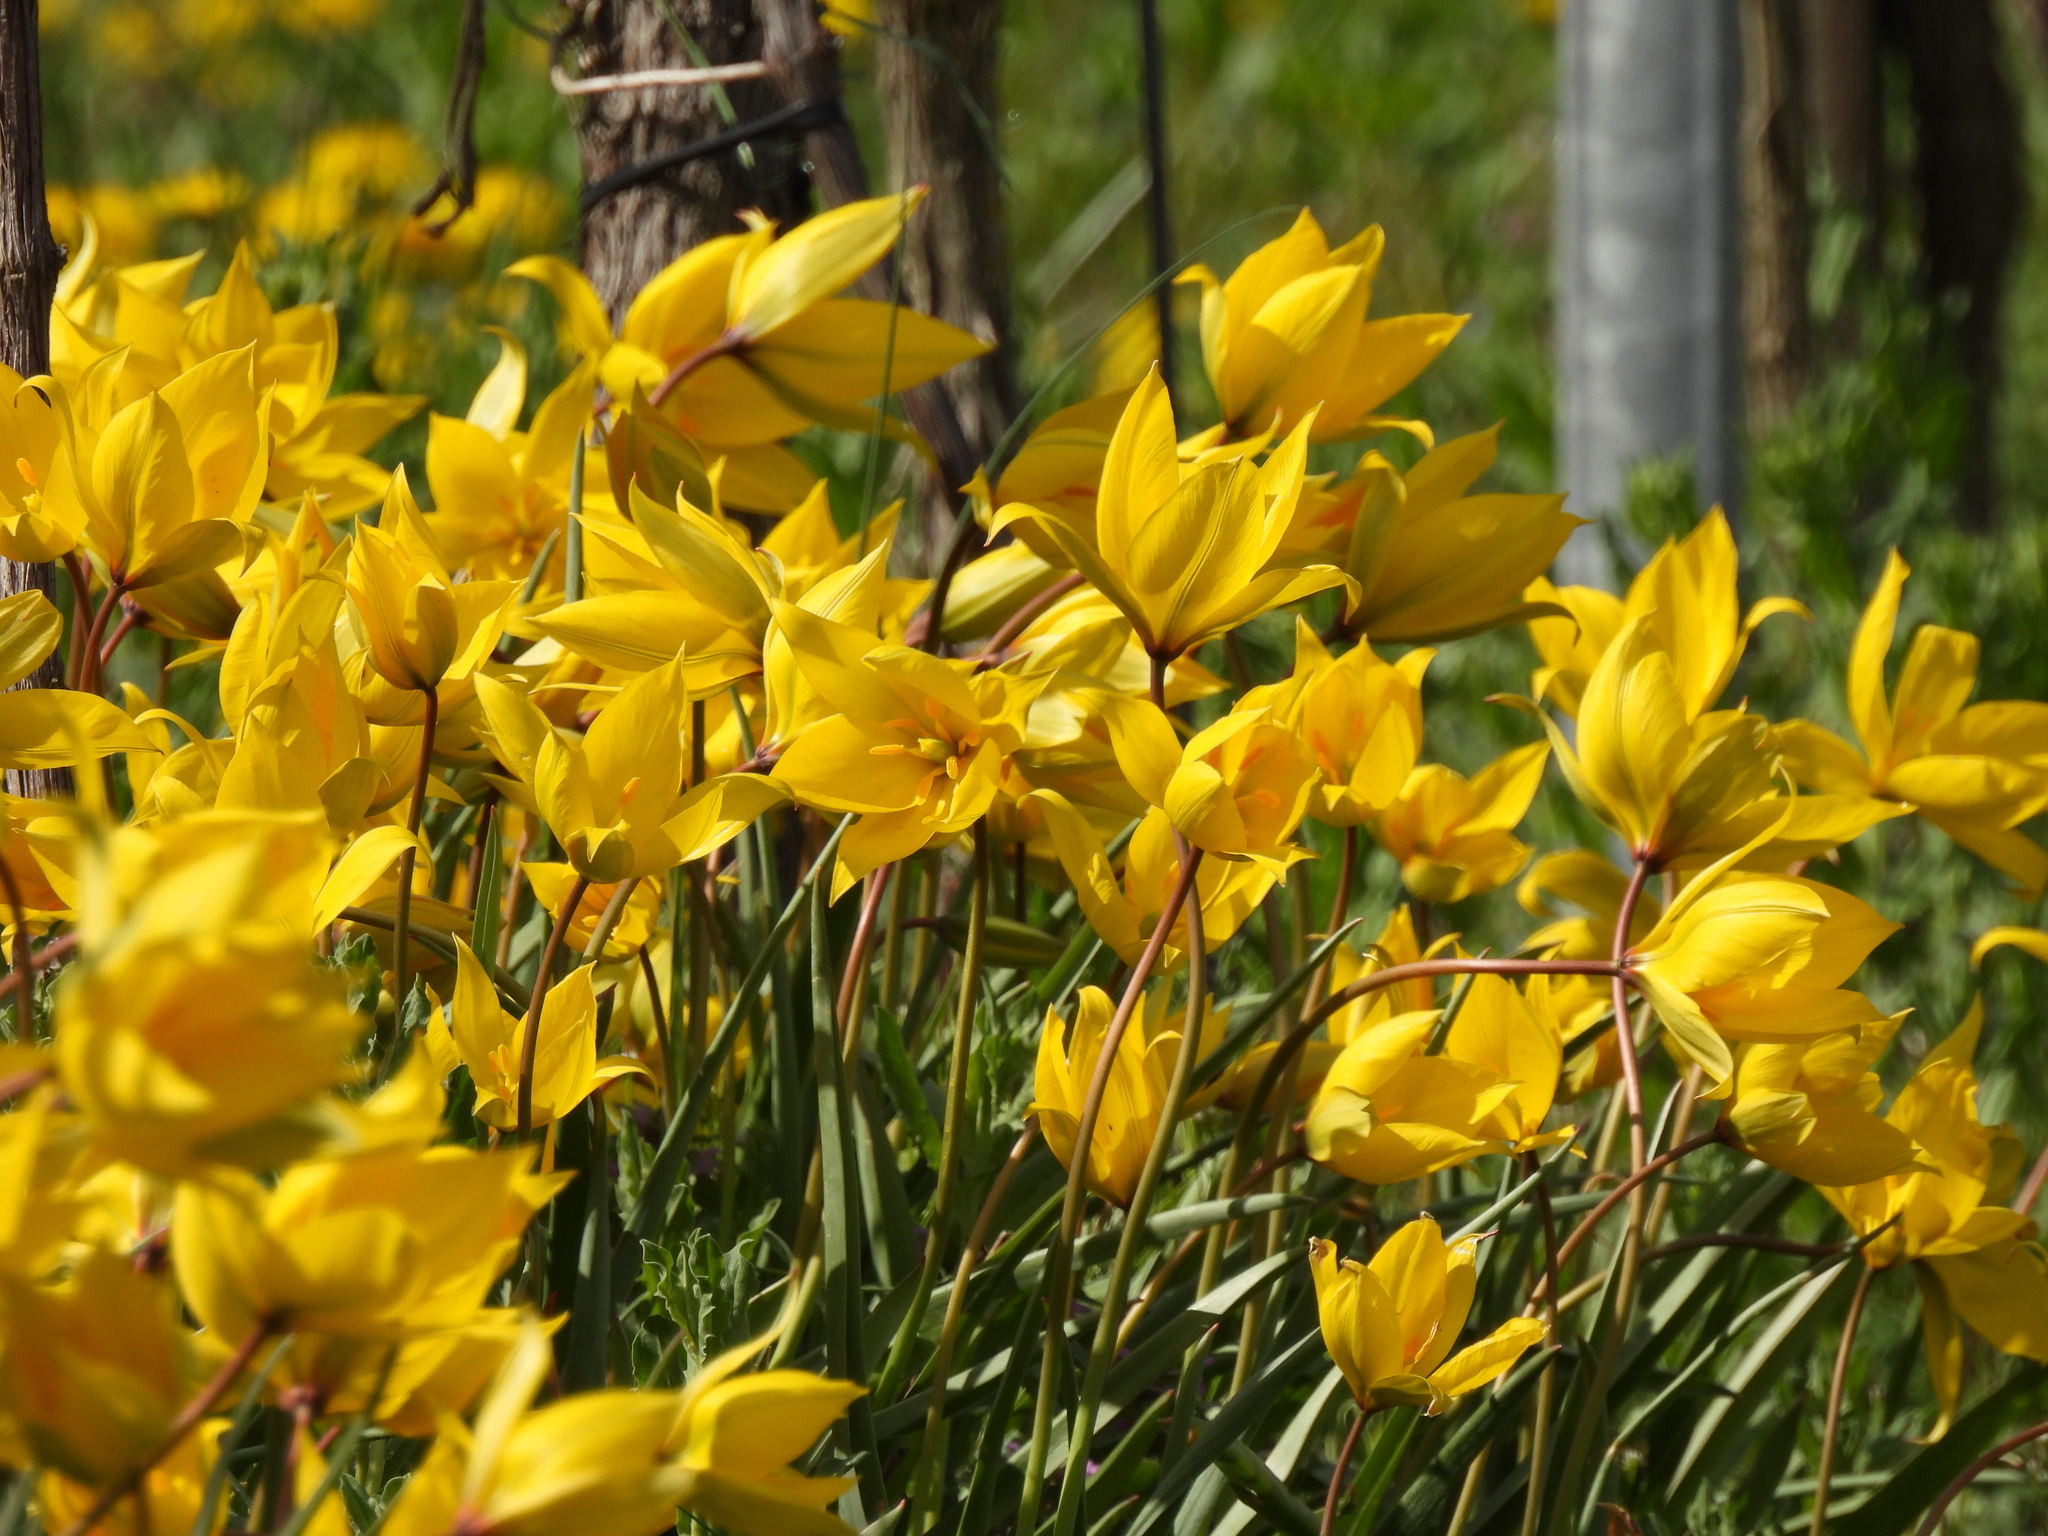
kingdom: Plantae
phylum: Tracheophyta
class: Liliopsida
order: Liliales
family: Liliaceae
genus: Tulipa
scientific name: Tulipa sylvestris
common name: Wild tulip
